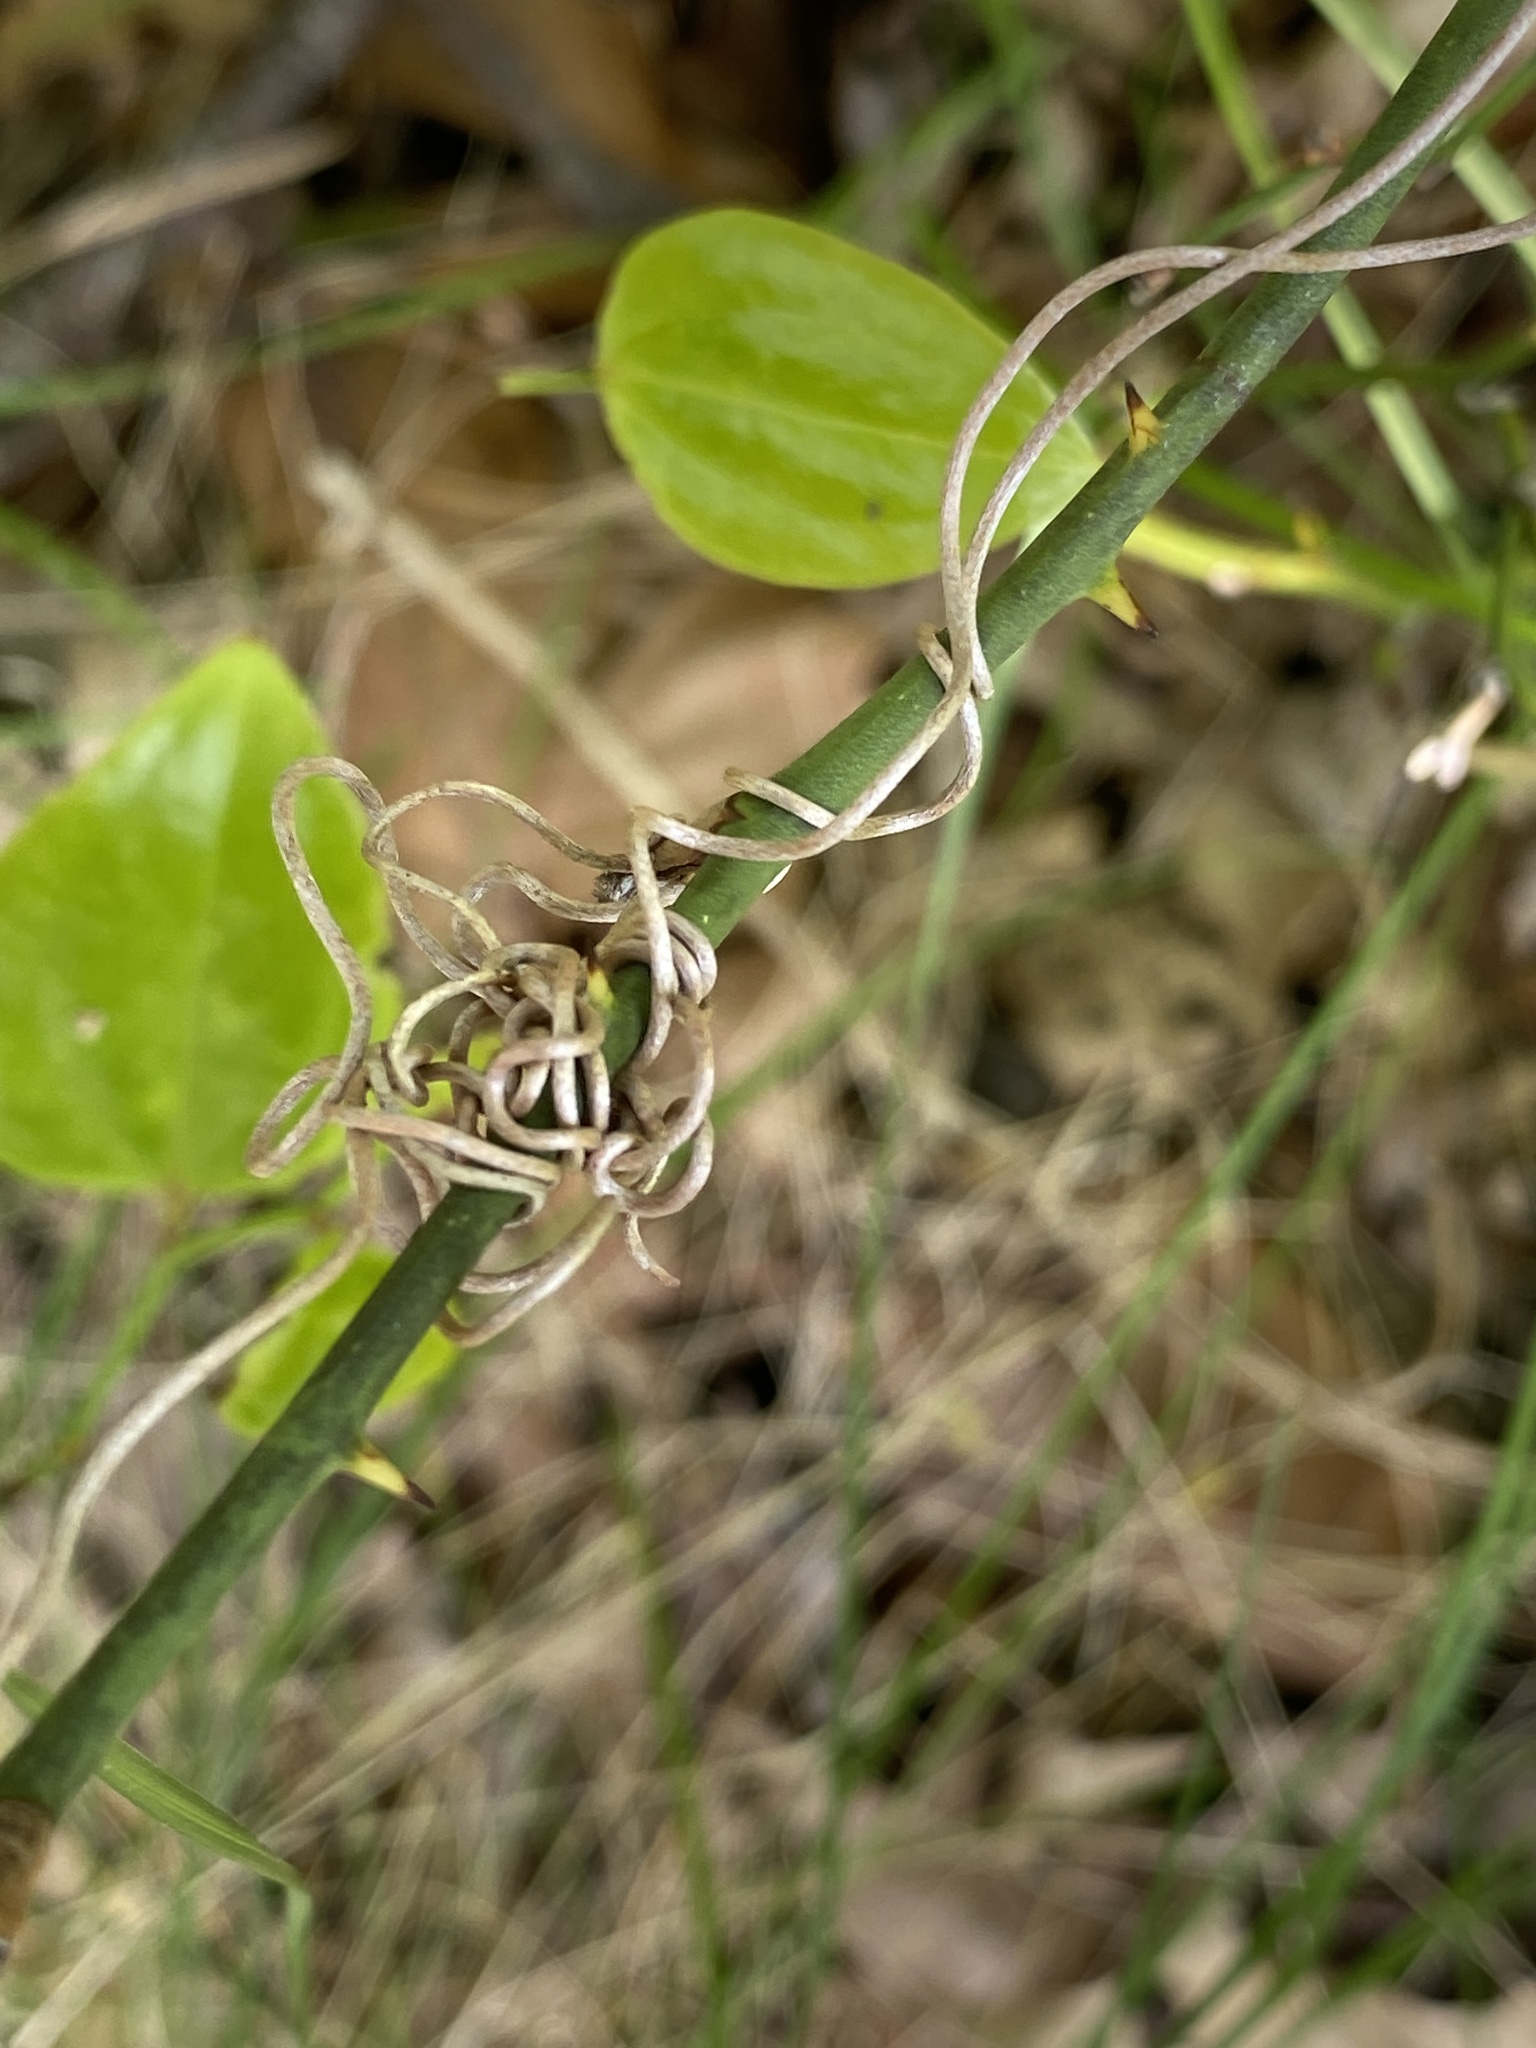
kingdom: Plantae
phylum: Tracheophyta
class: Liliopsida
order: Liliales
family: Smilacaceae
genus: Smilax
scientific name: Smilax rotundifolia
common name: Bullbriar
